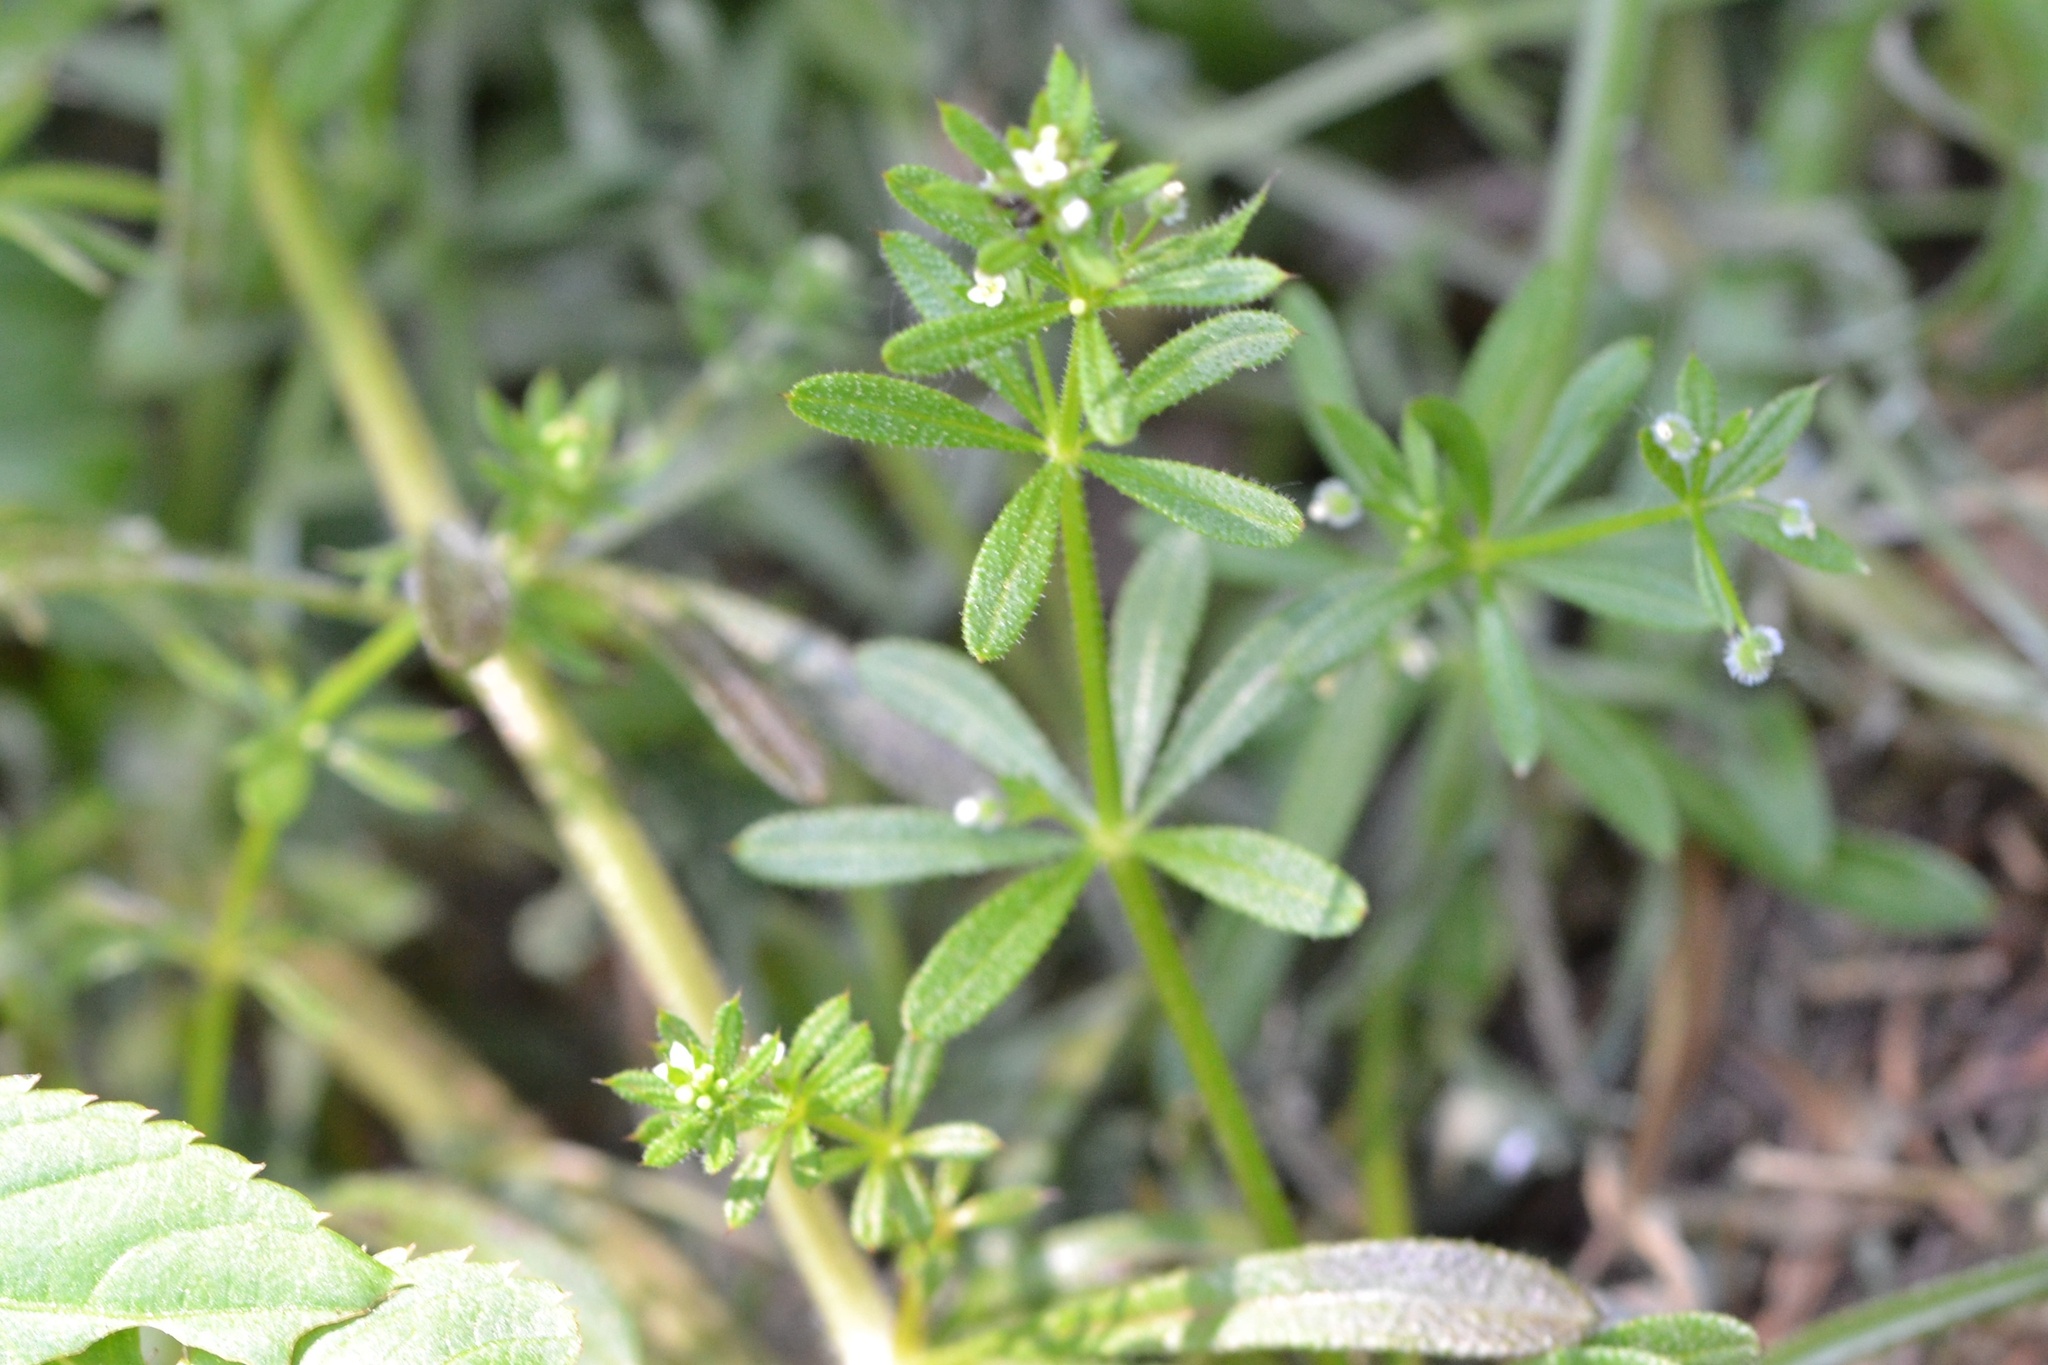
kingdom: Plantae
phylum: Tracheophyta
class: Magnoliopsida
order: Gentianales
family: Rubiaceae
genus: Galium
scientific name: Galium aparine
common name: Cleavers
